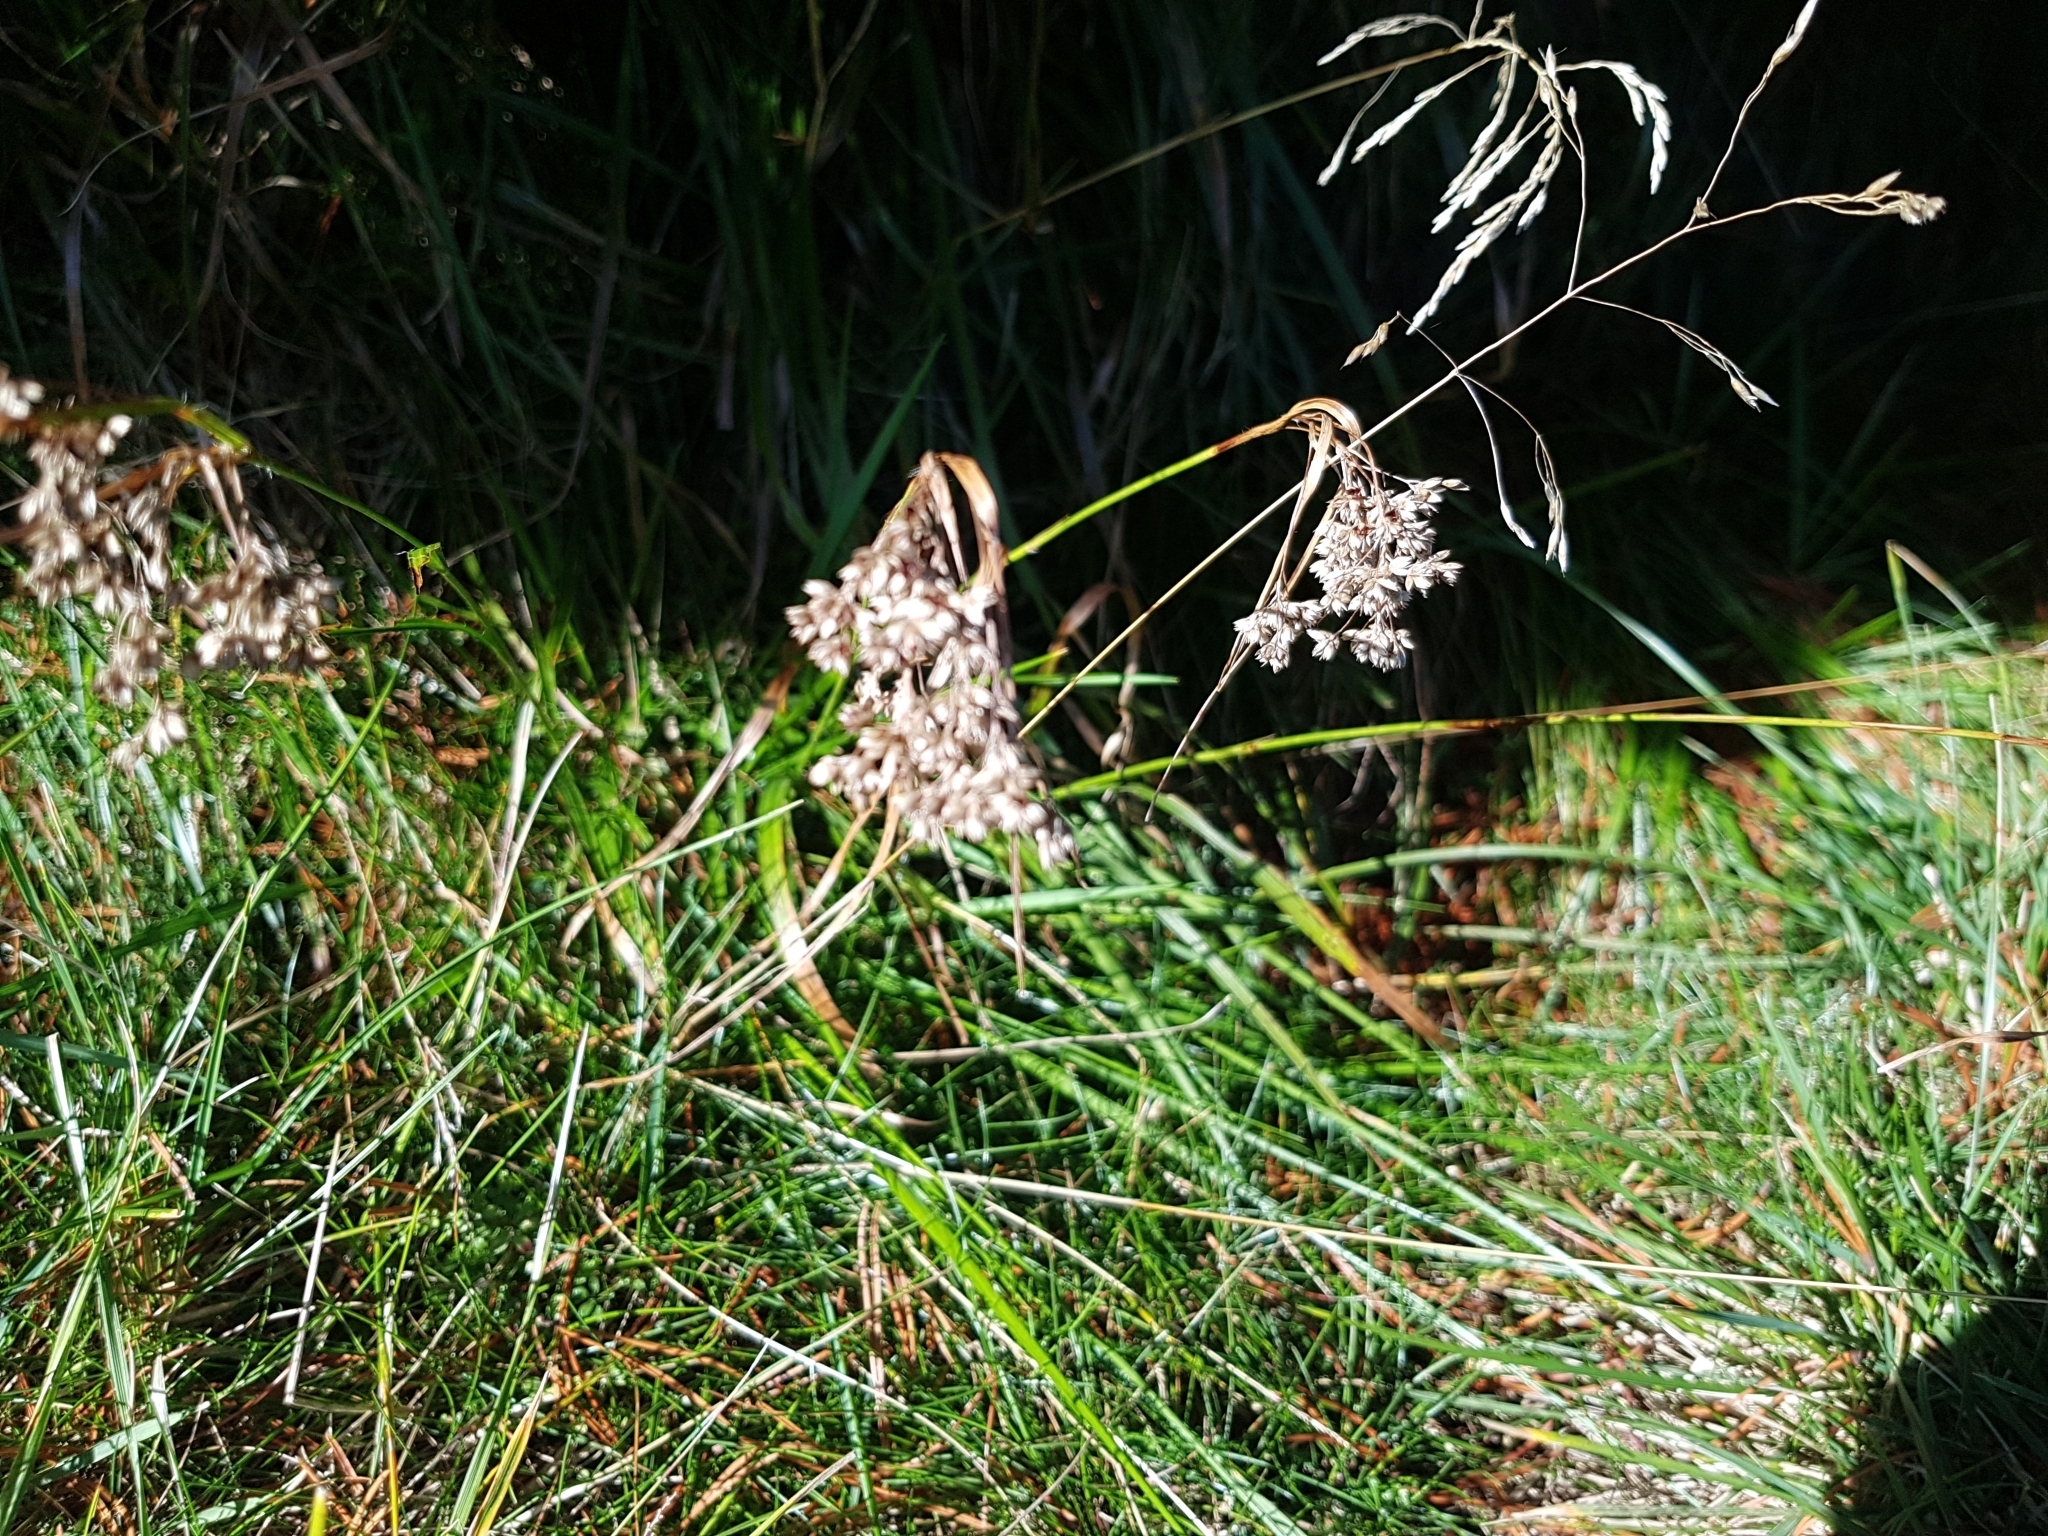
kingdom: Plantae
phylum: Tracheophyta
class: Liliopsida
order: Poales
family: Juncaceae
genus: Luzula
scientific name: Luzula luzuloides
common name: White wood-rush
